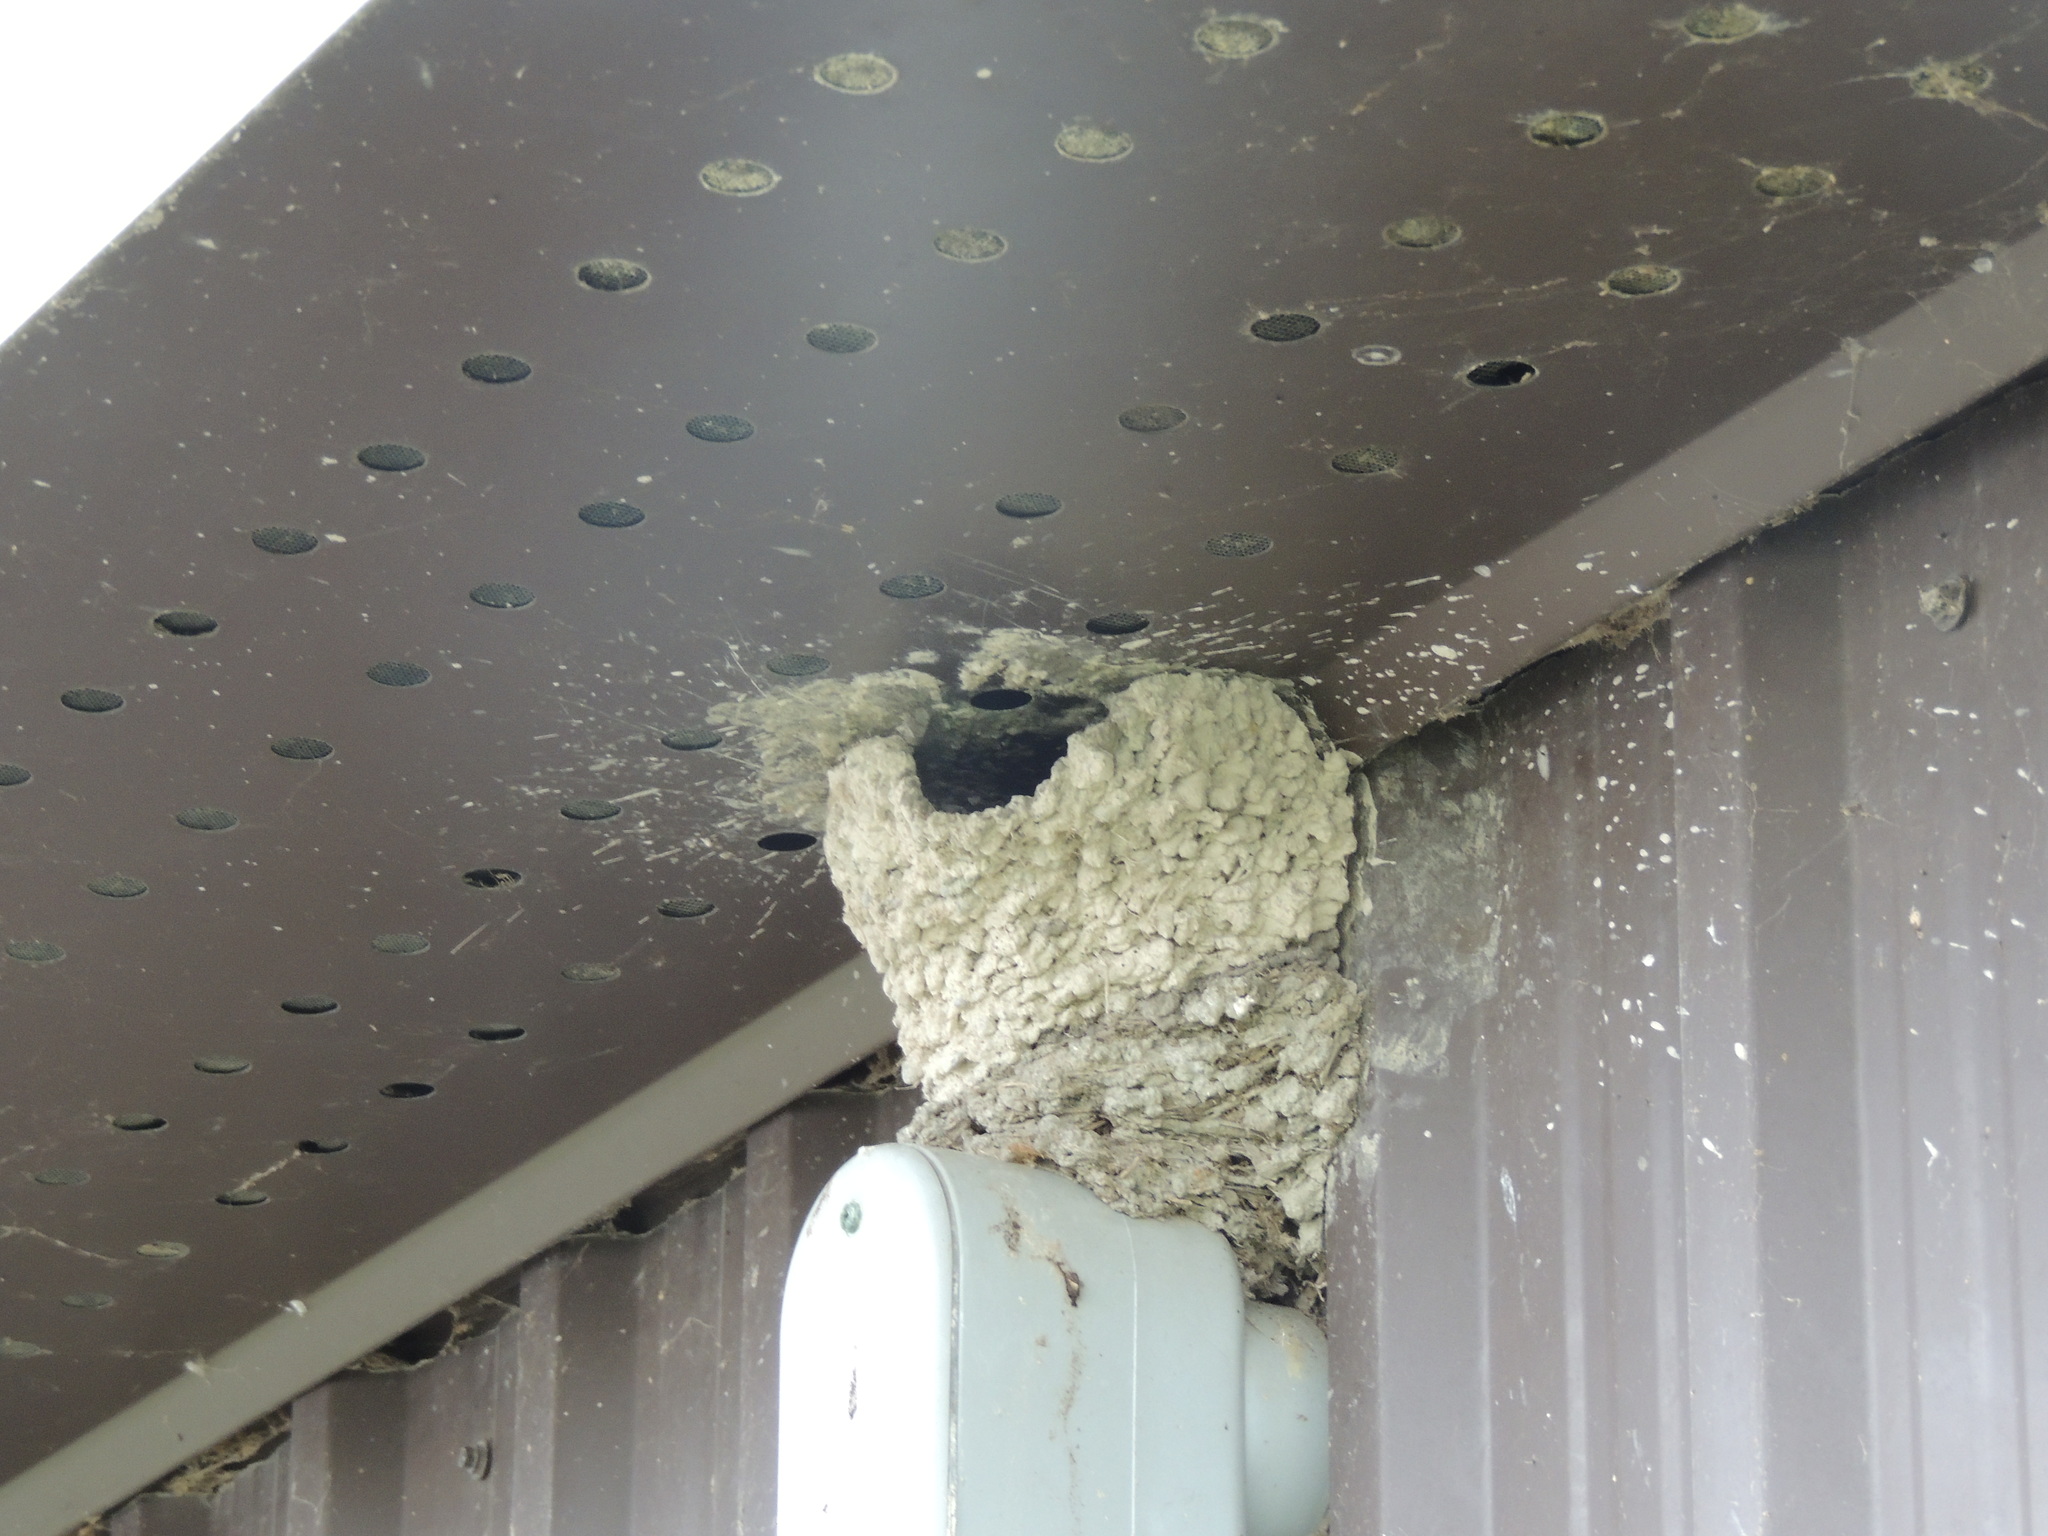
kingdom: Animalia
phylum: Chordata
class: Aves
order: Passeriformes
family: Hirundinidae
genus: Petrochelidon
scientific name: Petrochelidon pyrrhonota
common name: American cliff swallow
